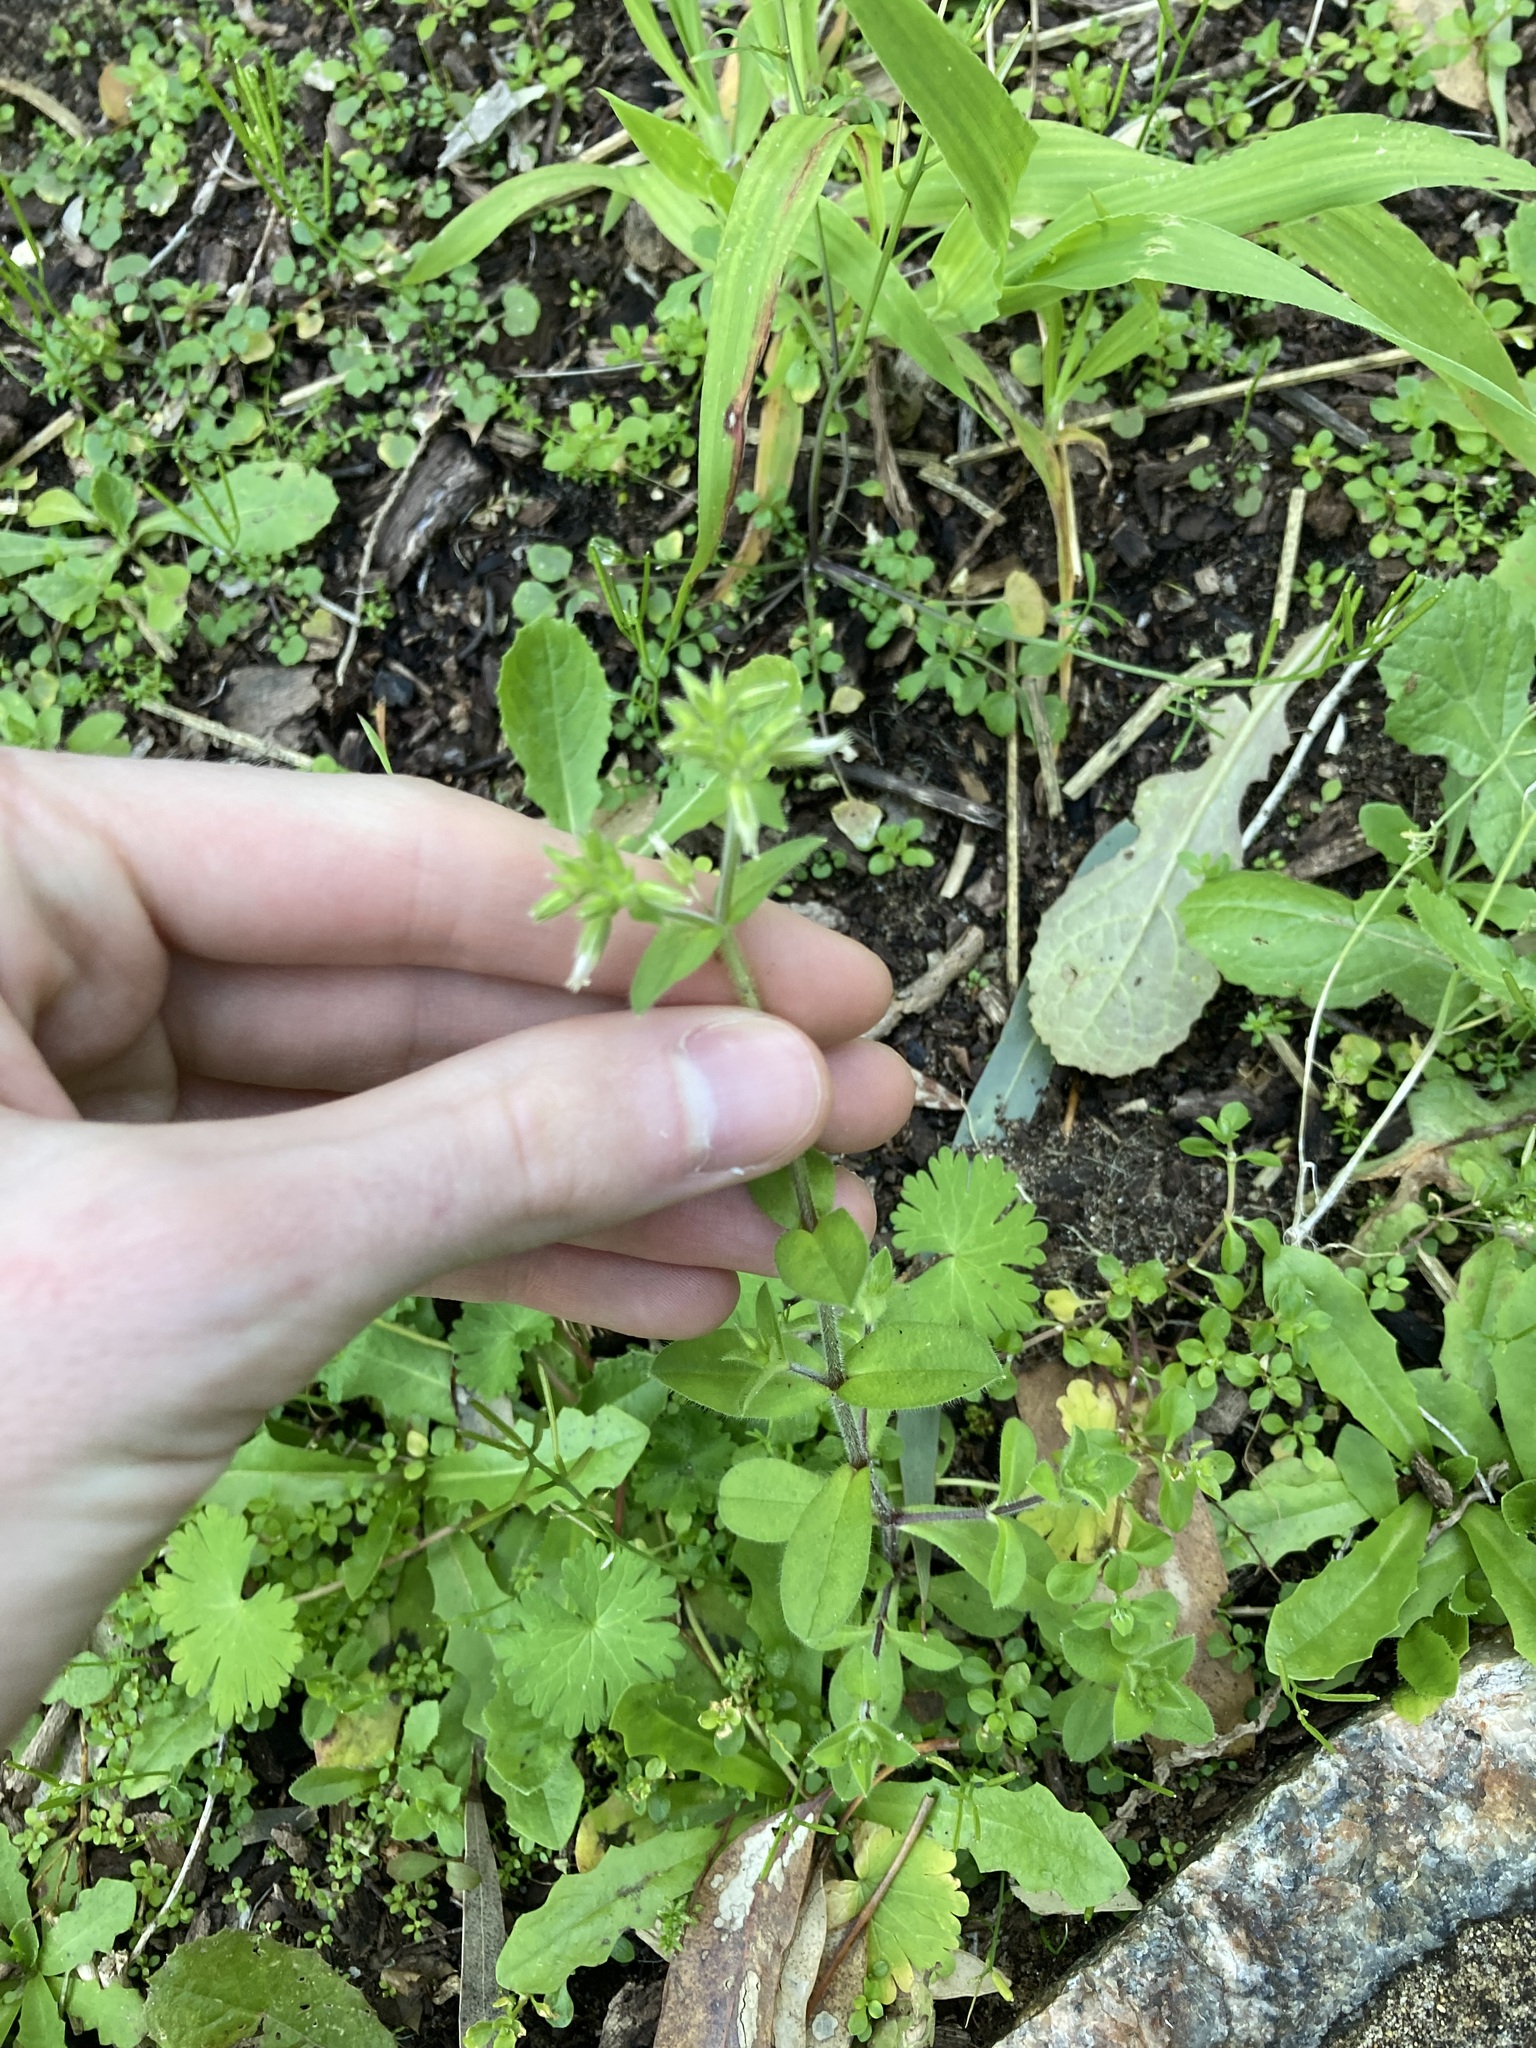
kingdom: Plantae
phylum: Tracheophyta
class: Magnoliopsida
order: Caryophyllales
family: Caryophyllaceae
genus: Cerastium
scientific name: Cerastium glomeratum
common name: Sticky chickweed
